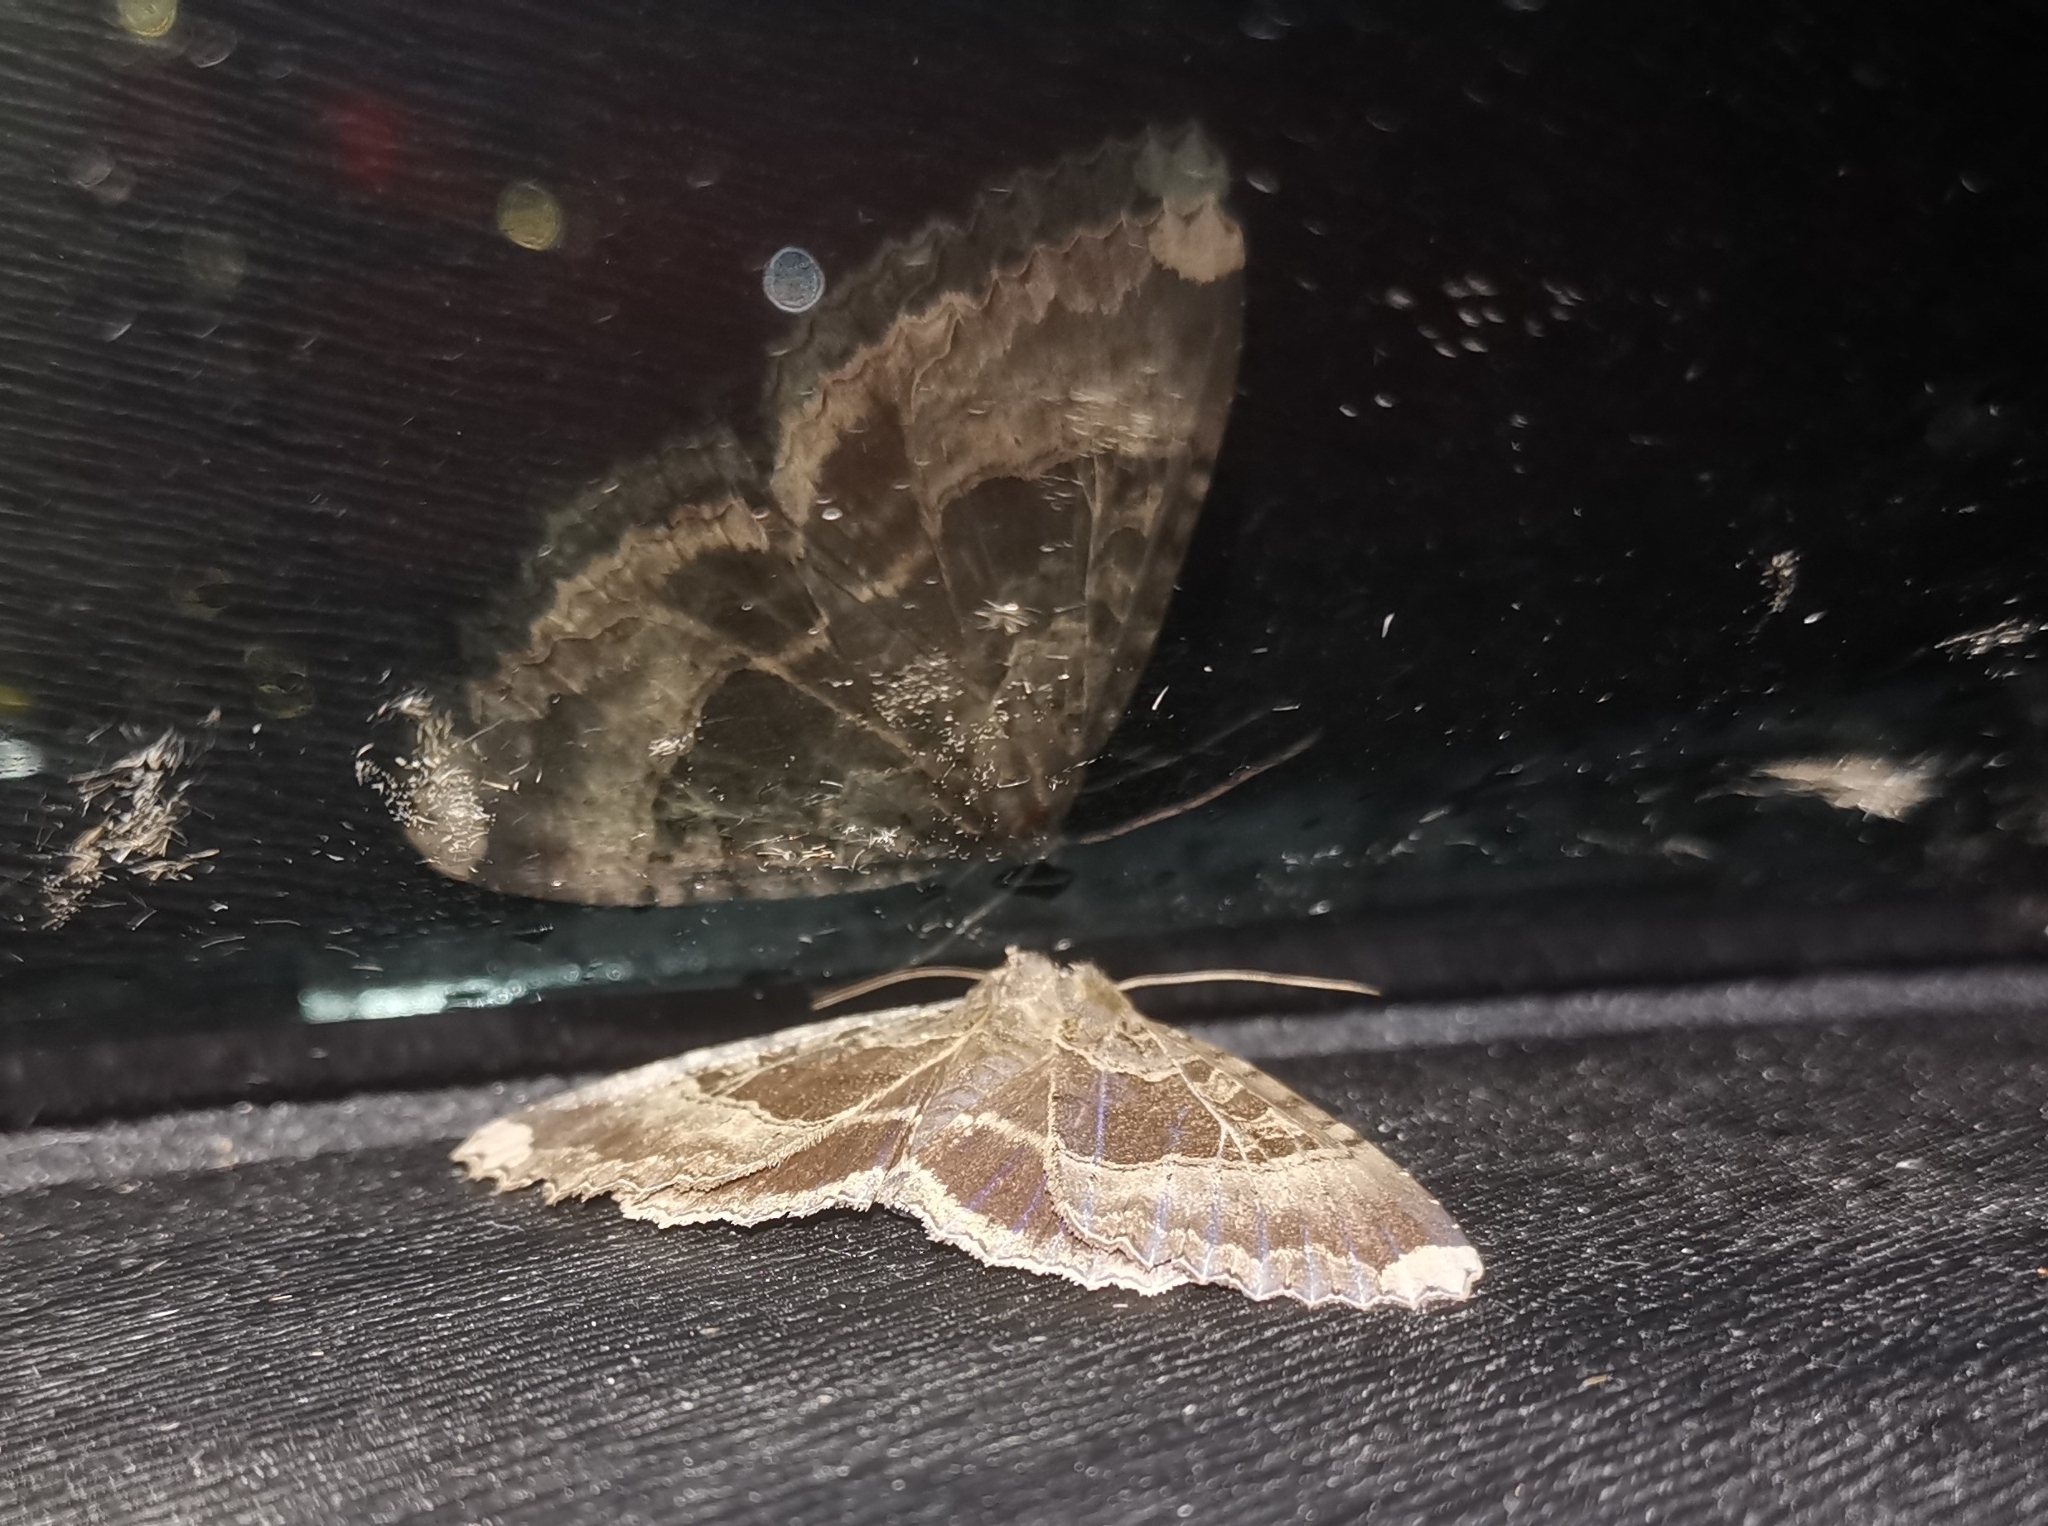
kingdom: Animalia
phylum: Arthropoda
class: Insecta
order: Lepidoptera
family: Noctuidae
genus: Mormo
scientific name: Mormo maura
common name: Old lady
